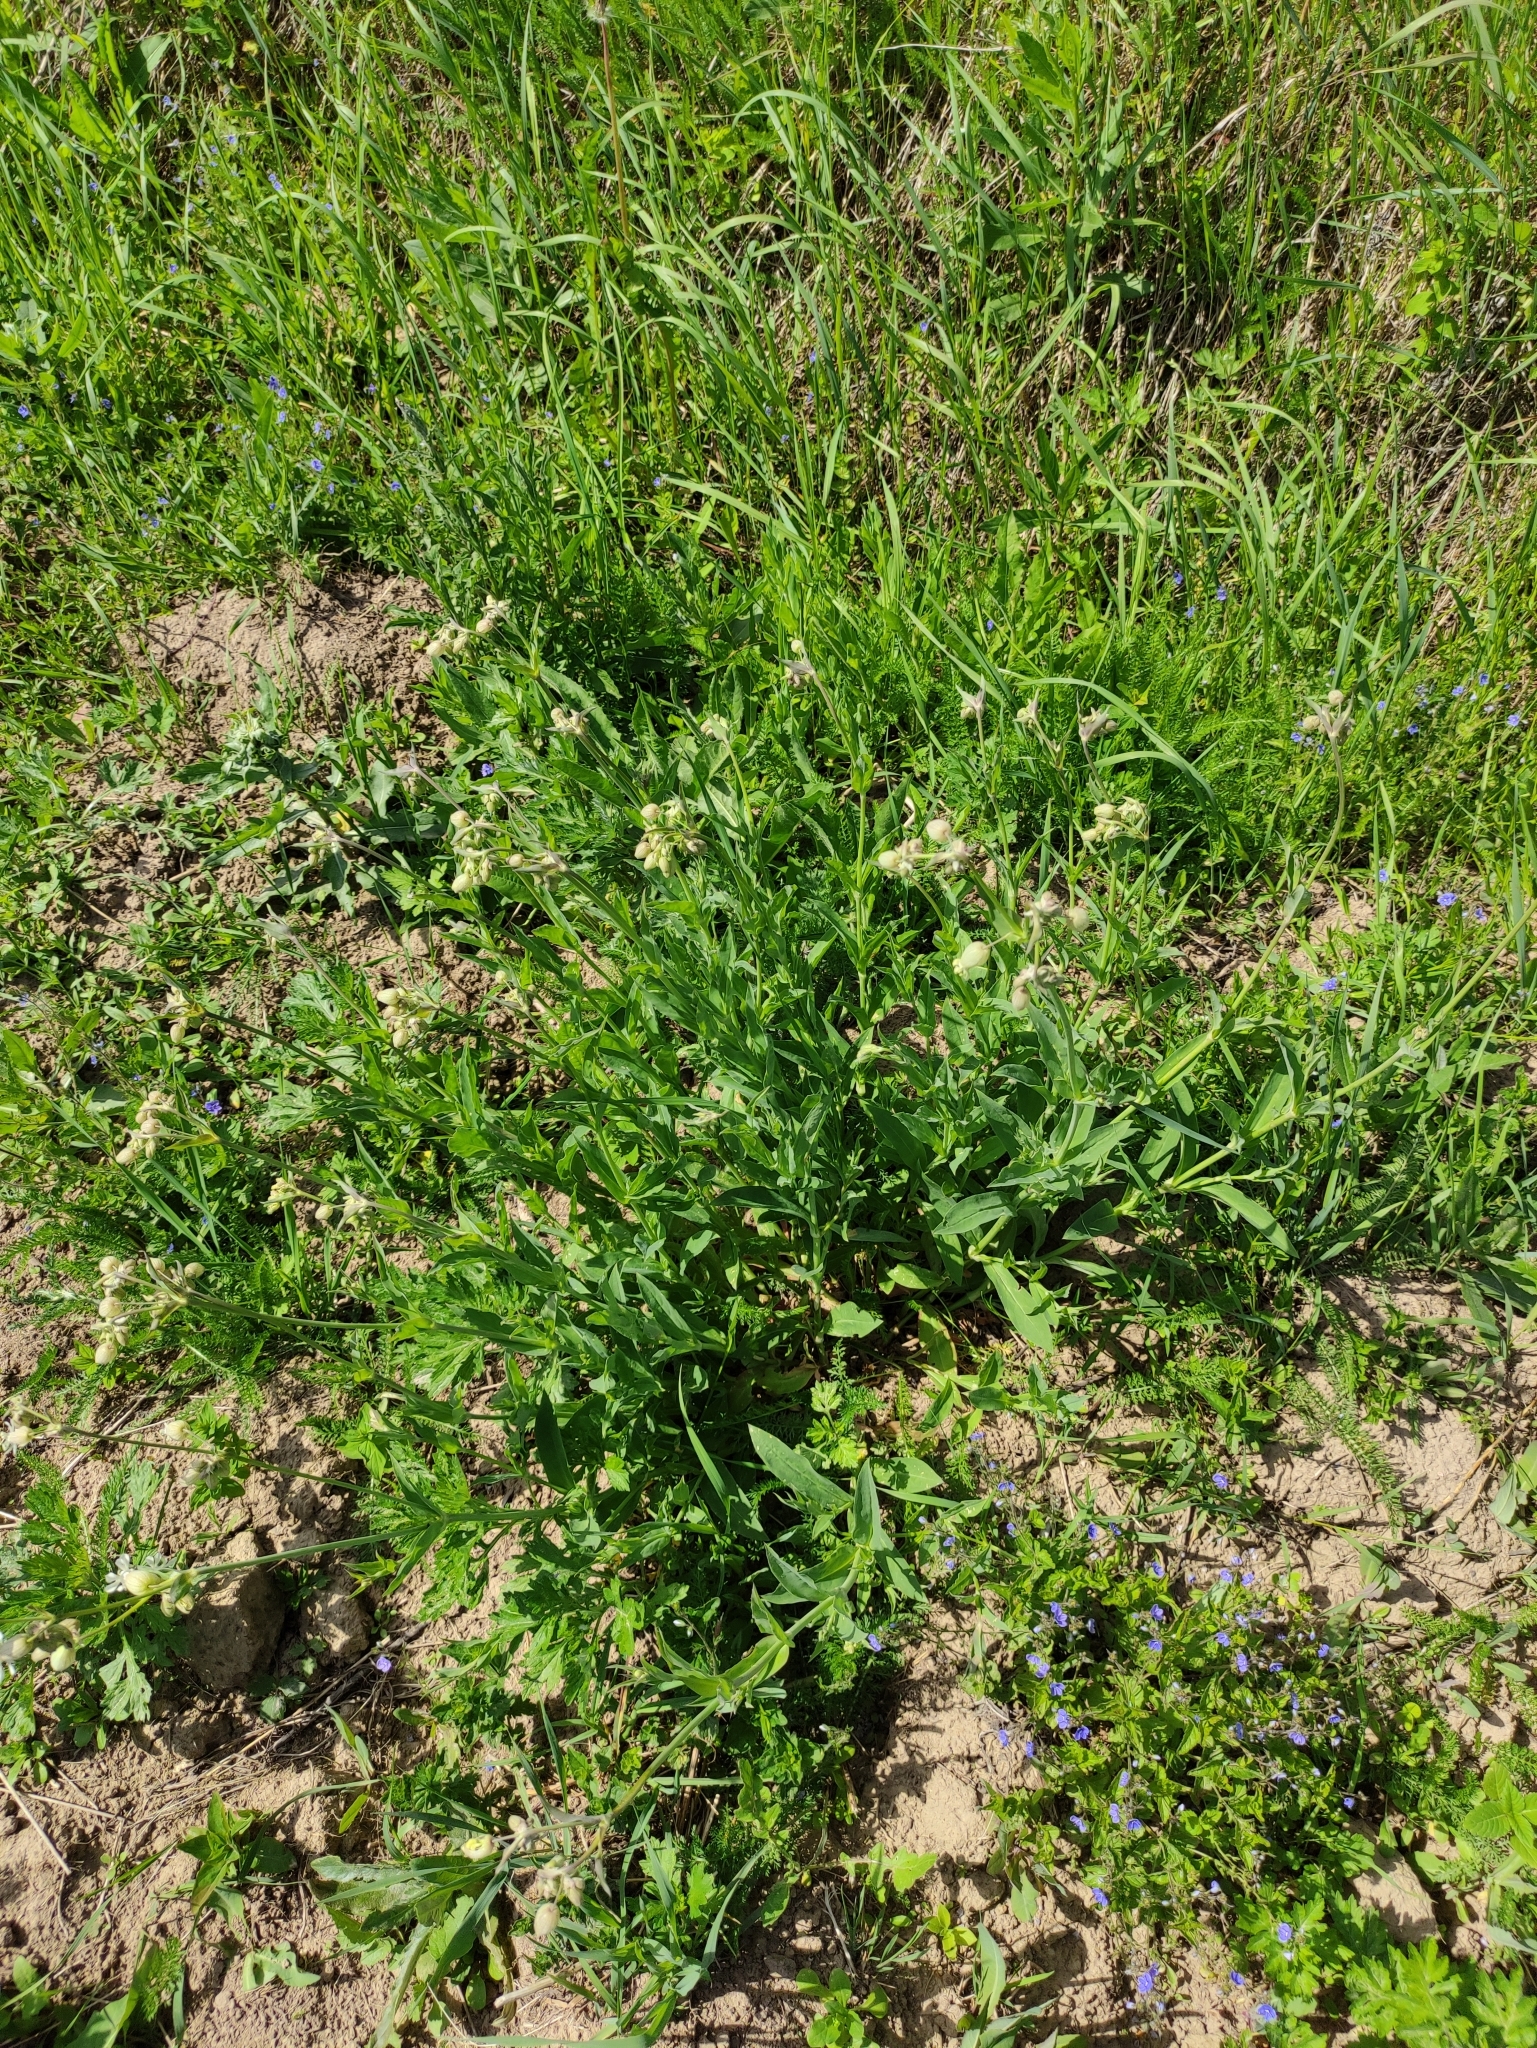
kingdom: Plantae
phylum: Tracheophyta
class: Magnoliopsida
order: Caryophyllales
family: Caryophyllaceae
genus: Silene
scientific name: Silene vulgaris
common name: Bladder campion
